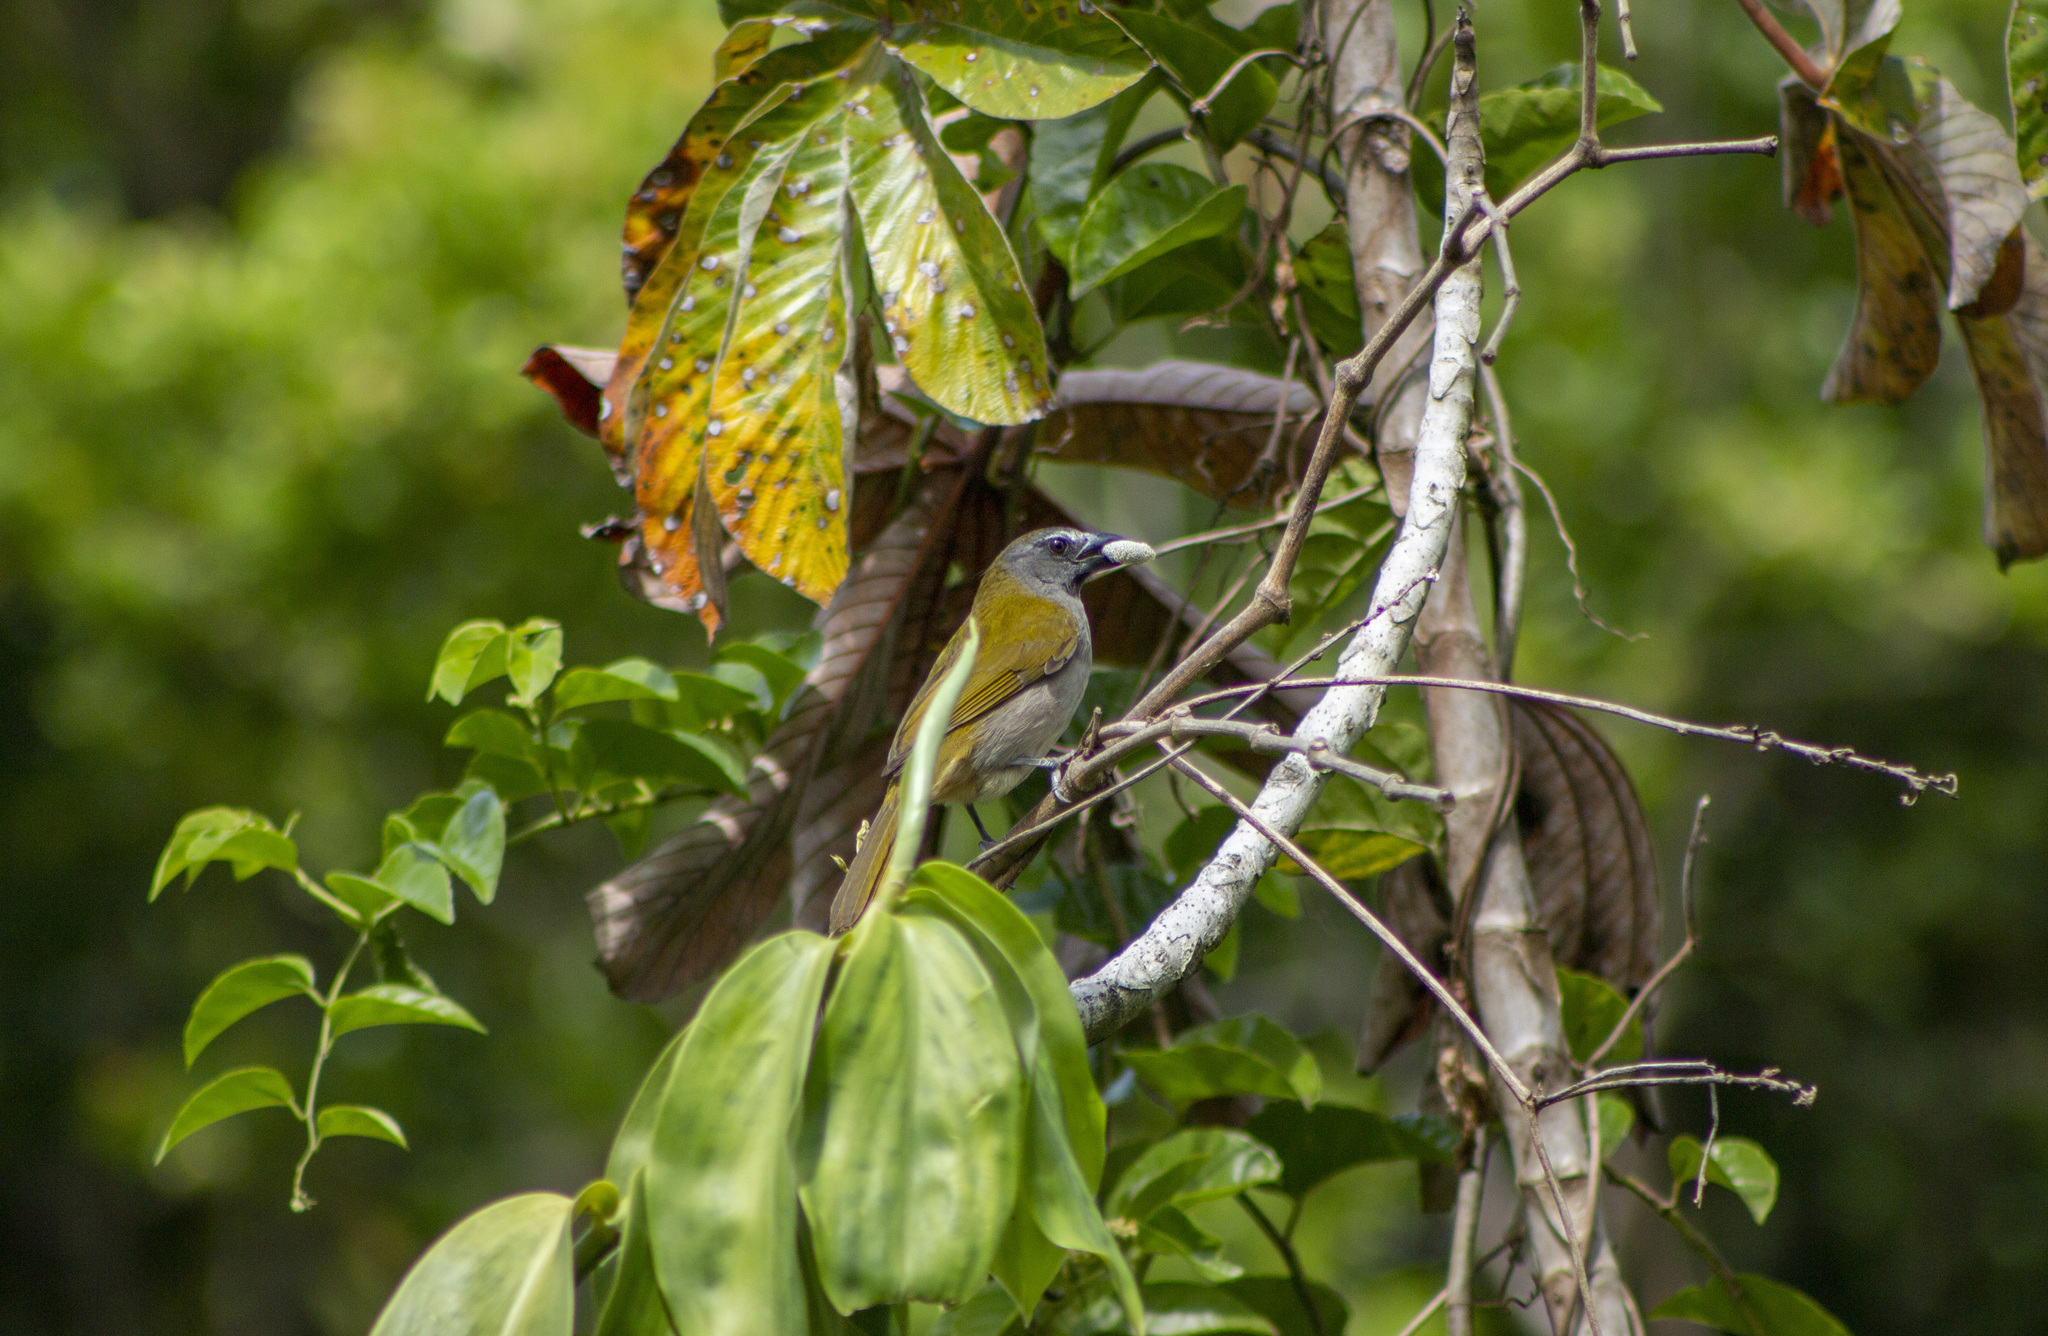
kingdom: Animalia
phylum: Chordata
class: Aves
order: Passeriformes
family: Thraupidae
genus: Saltator
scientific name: Saltator maximus
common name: Buff-throated saltator
